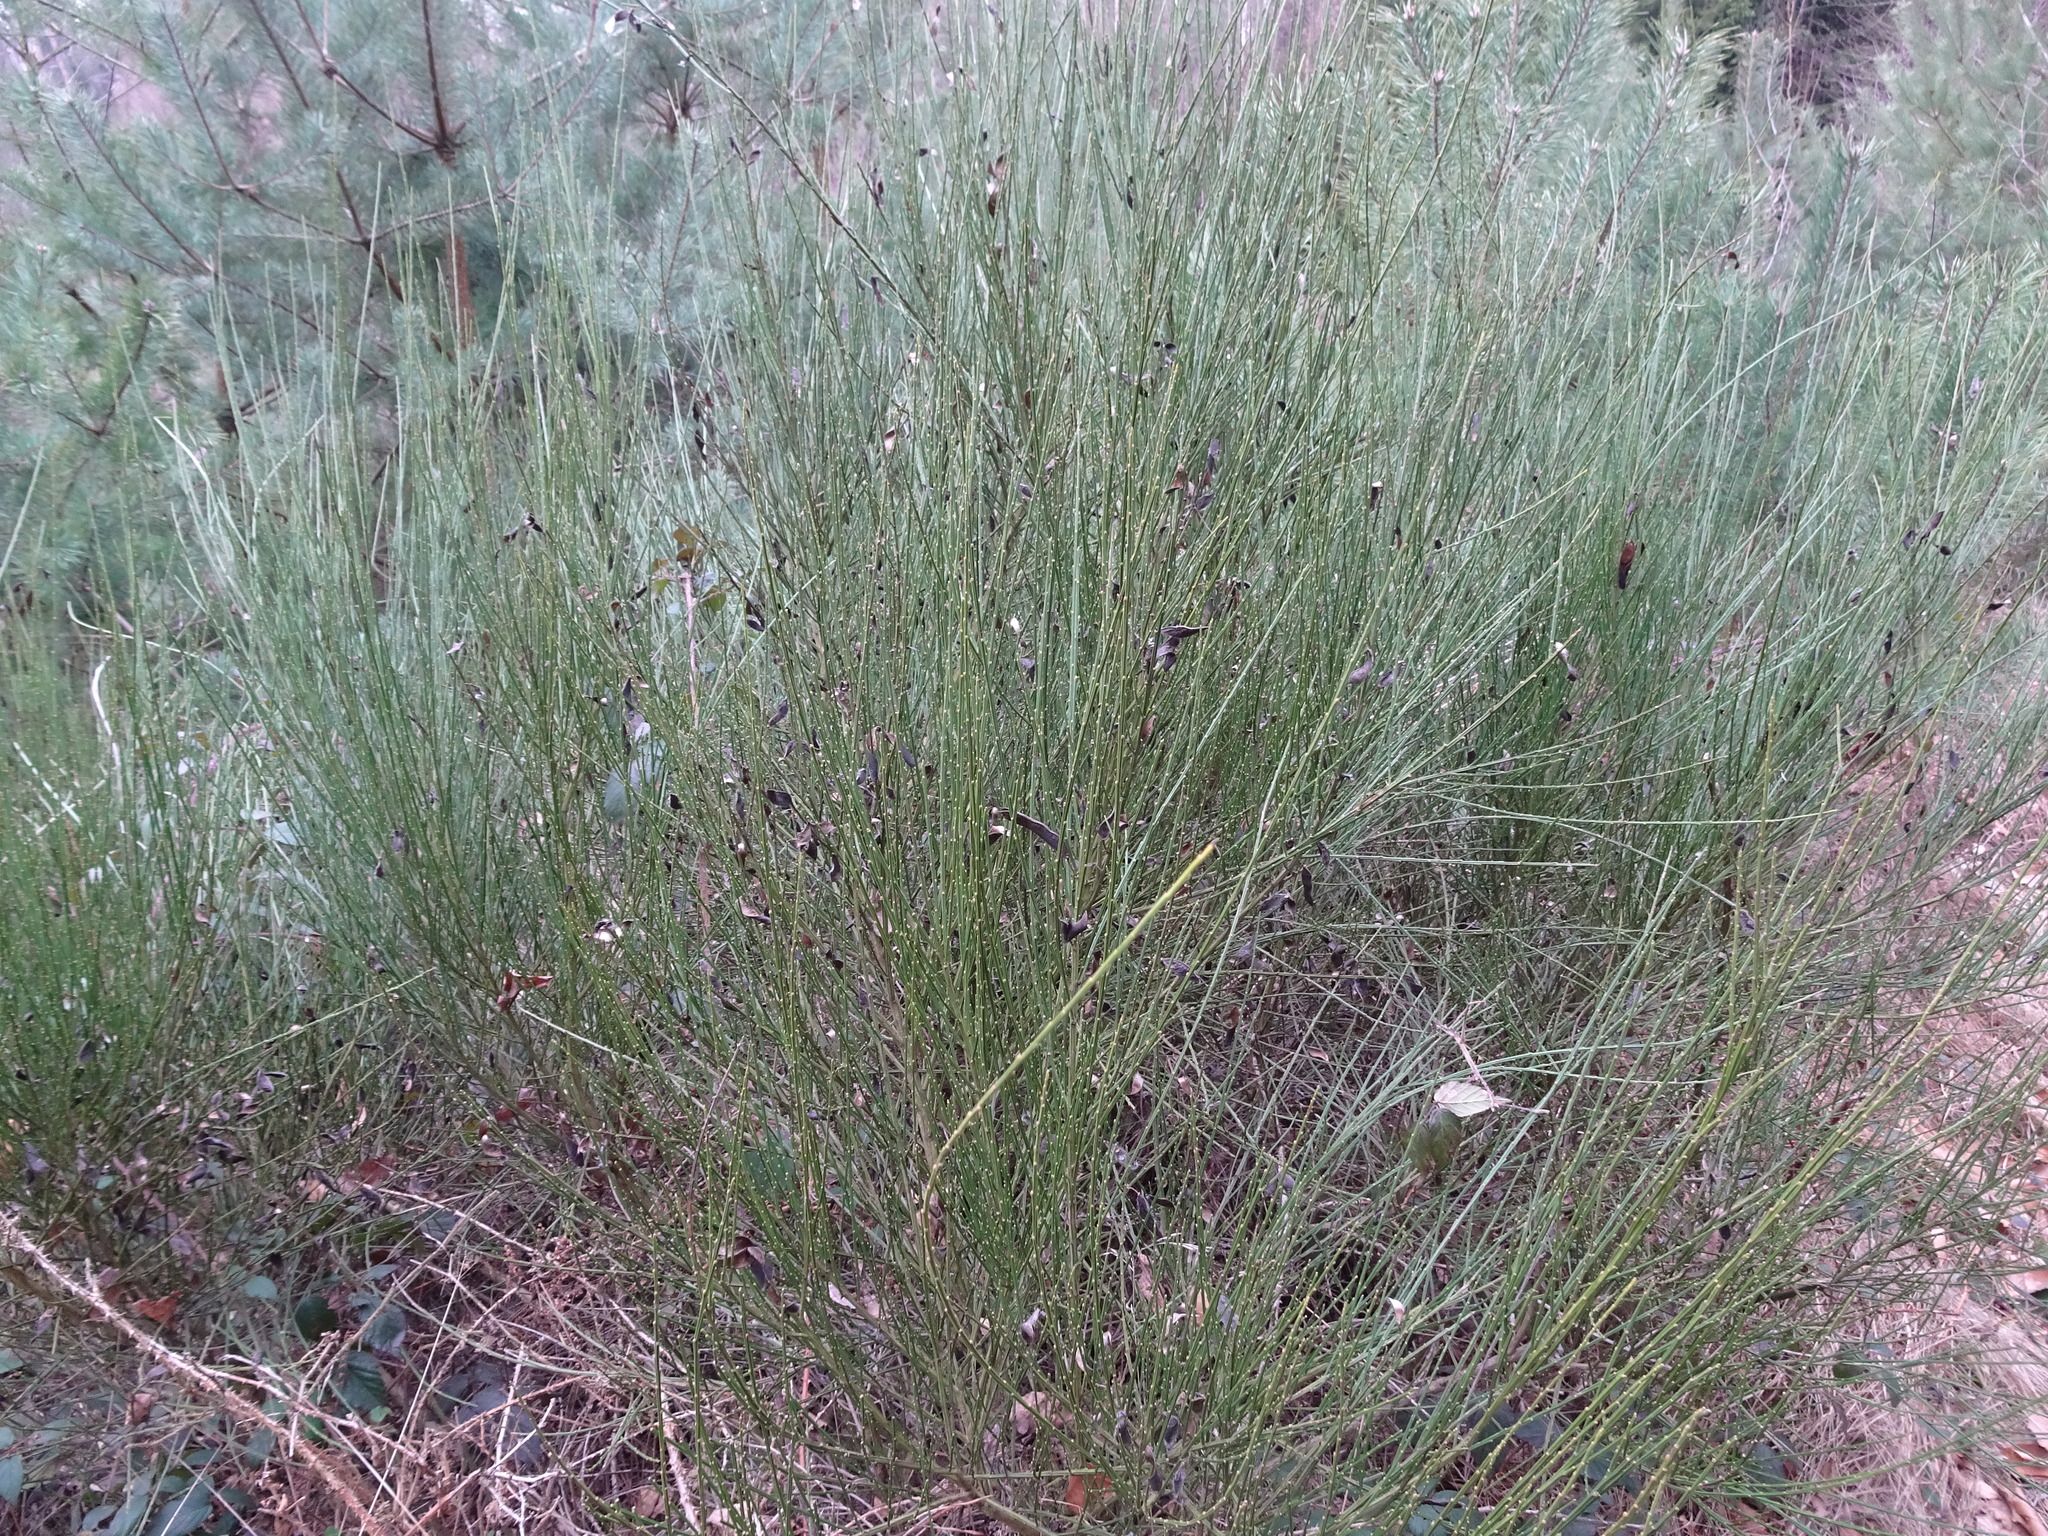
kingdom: Plantae
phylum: Tracheophyta
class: Magnoliopsida
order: Fabales
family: Fabaceae
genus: Cytisus
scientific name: Cytisus scoparius
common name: Scotch broom
